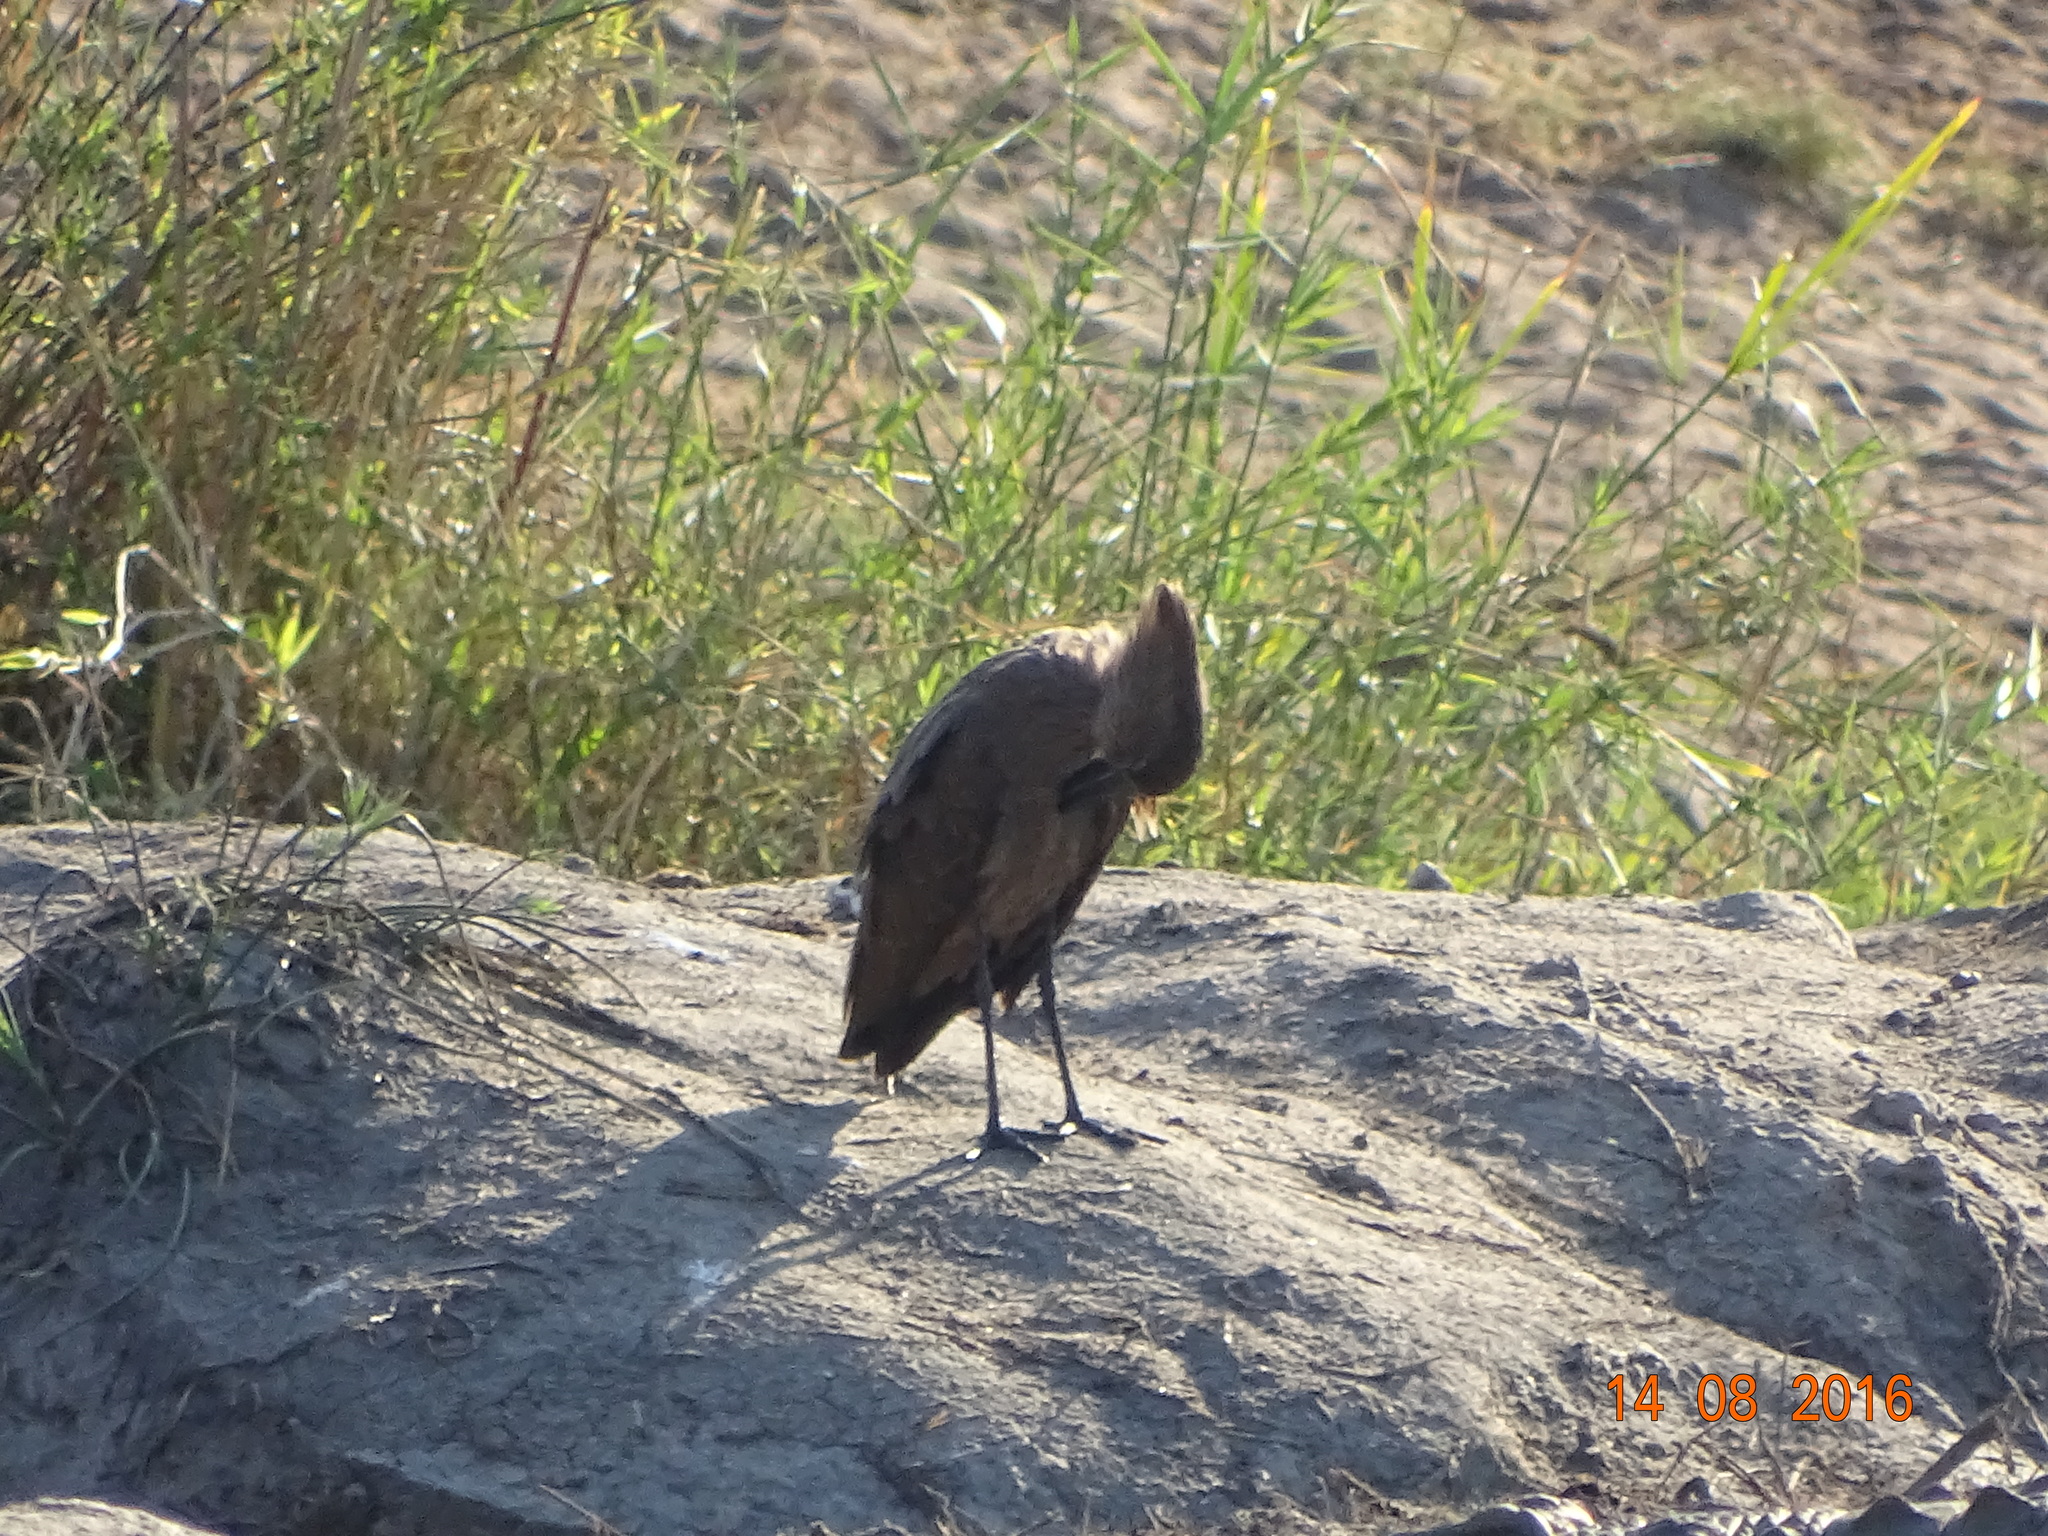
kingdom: Animalia
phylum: Chordata
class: Aves
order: Pelecaniformes
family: Scopidae
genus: Scopus
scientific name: Scopus umbretta
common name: Hamerkop
